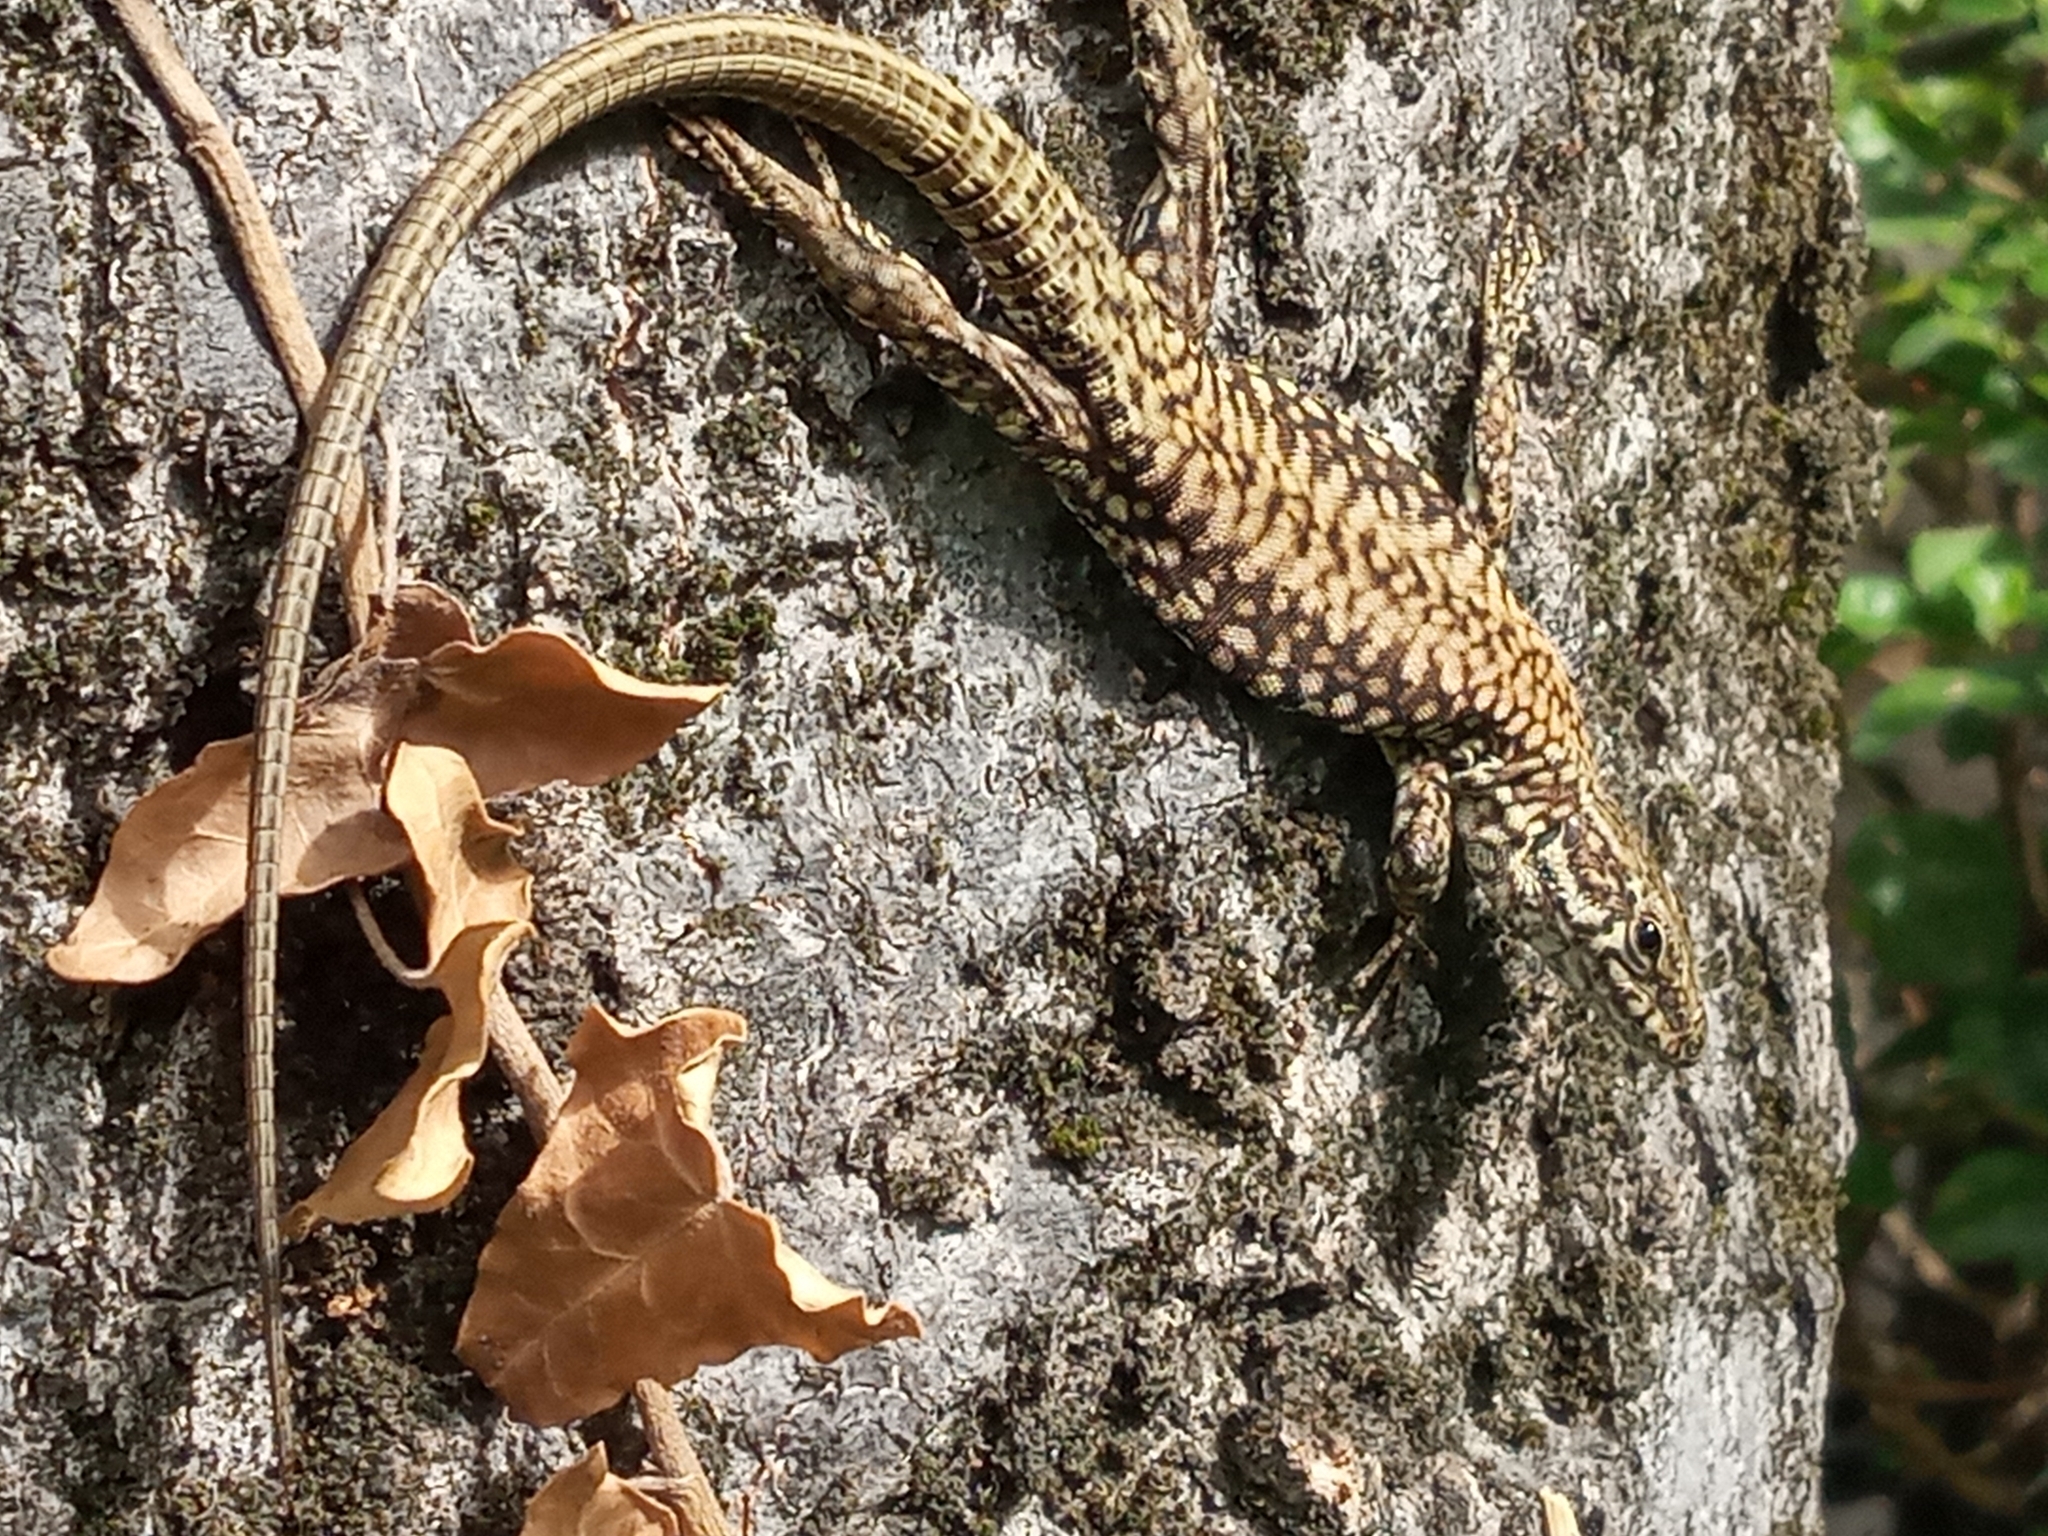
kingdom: Animalia
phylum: Chordata
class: Squamata
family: Lacertidae
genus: Podarcis
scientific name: Podarcis muralis
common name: Common wall lizard
